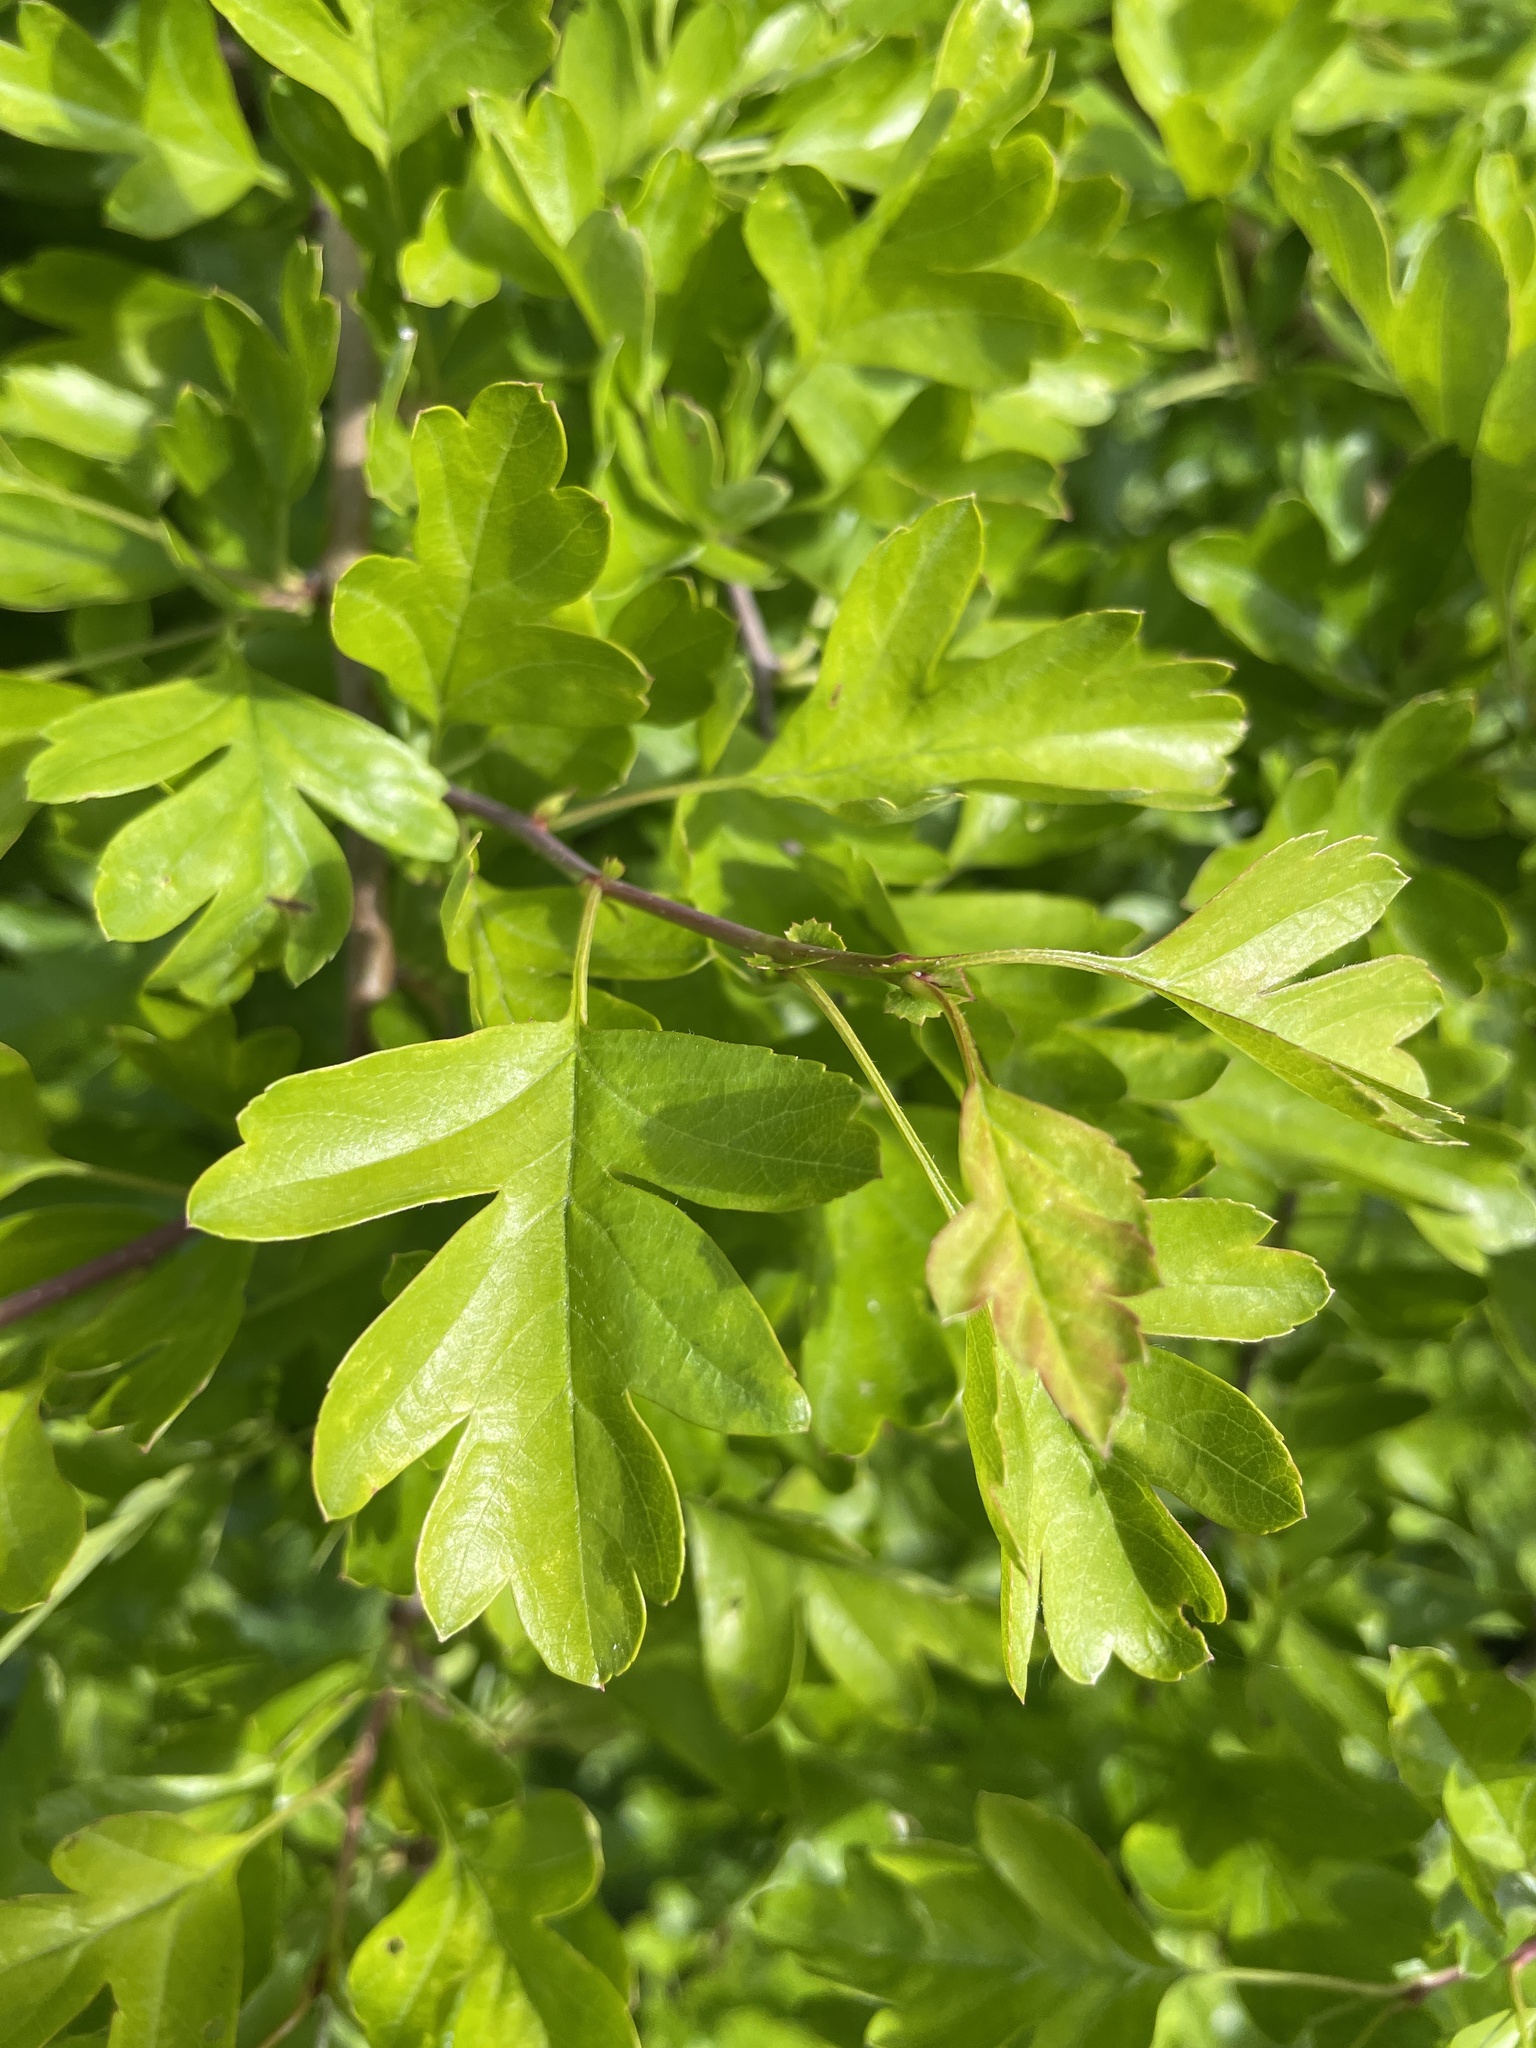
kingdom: Plantae
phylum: Tracheophyta
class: Magnoliopsida
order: Rosales
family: Rosaceae
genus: Crataegus
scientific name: Crataegus monogyna
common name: Hawthorn
